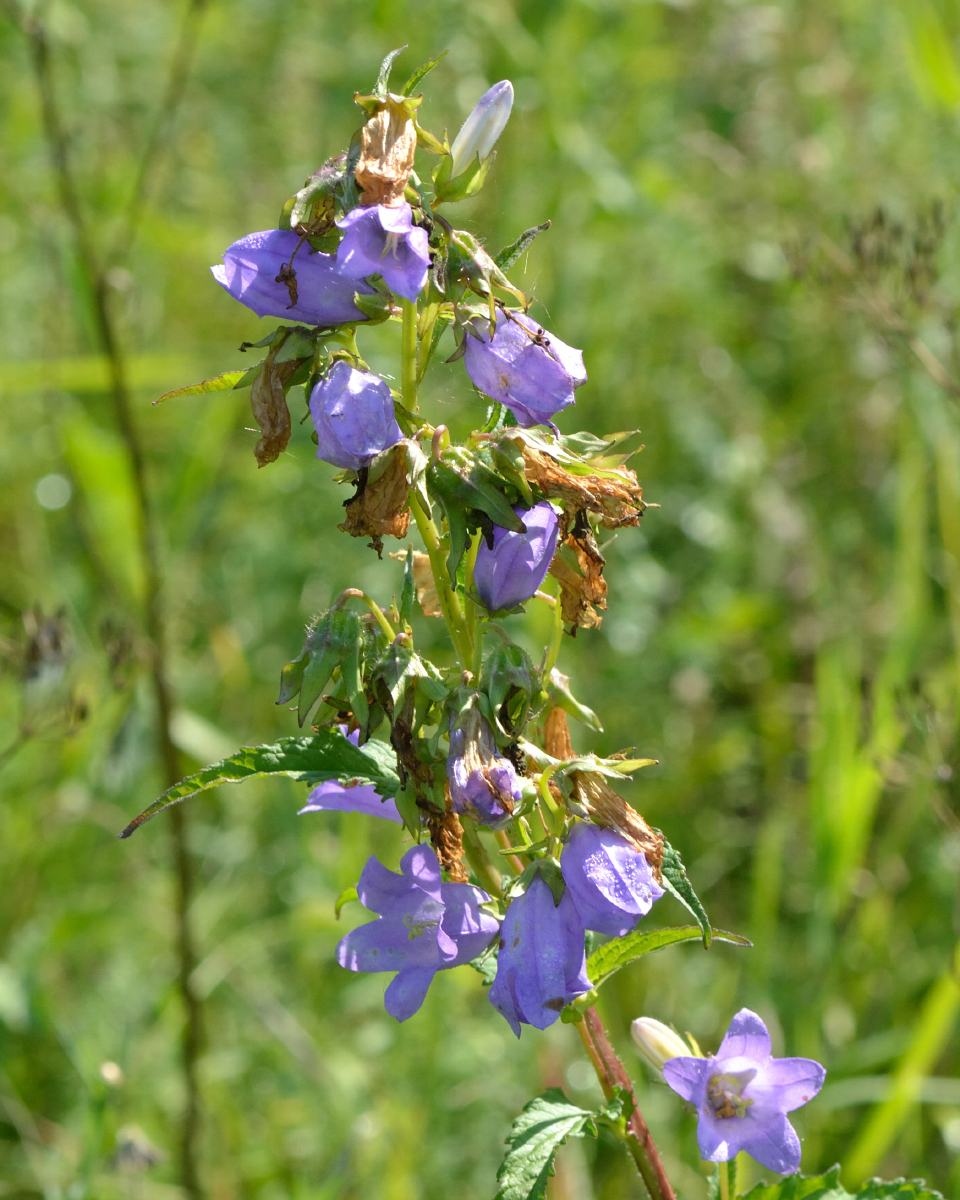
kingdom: Plantae
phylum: Tracheophyta
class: Magnoliopsida
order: Asterales
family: Campanulaceae
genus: Campanula
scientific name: Campanula trachelium
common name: Nettle-leaved bellflower
